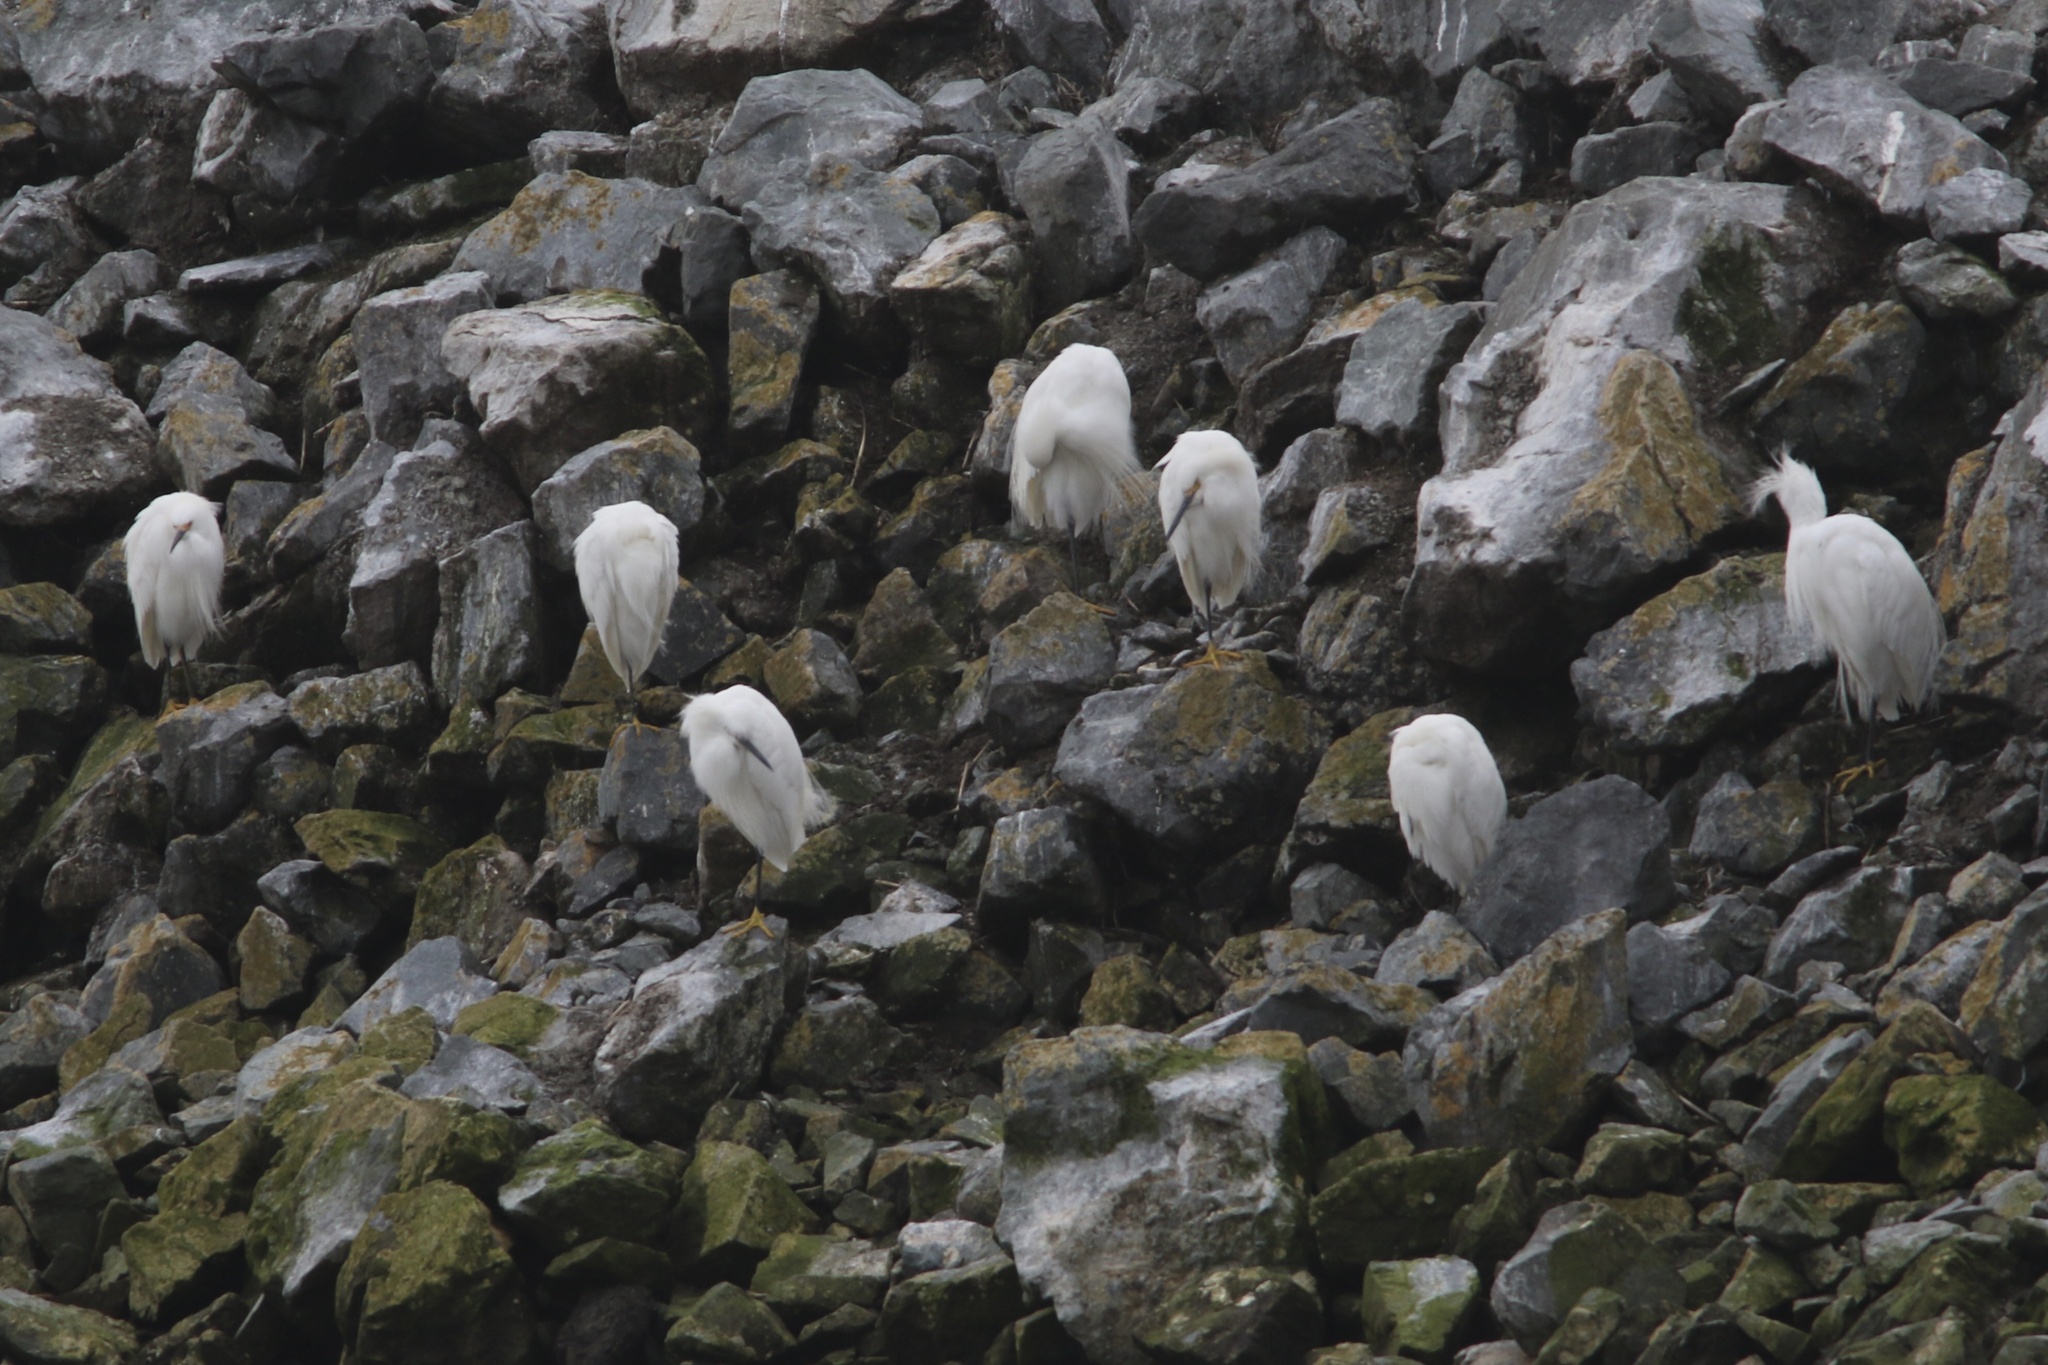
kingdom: Animalia
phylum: Chordata
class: Aves
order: Pelecaniformes
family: Ardeidae
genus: Egretta
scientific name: Egretta thula
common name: Snowy egret
